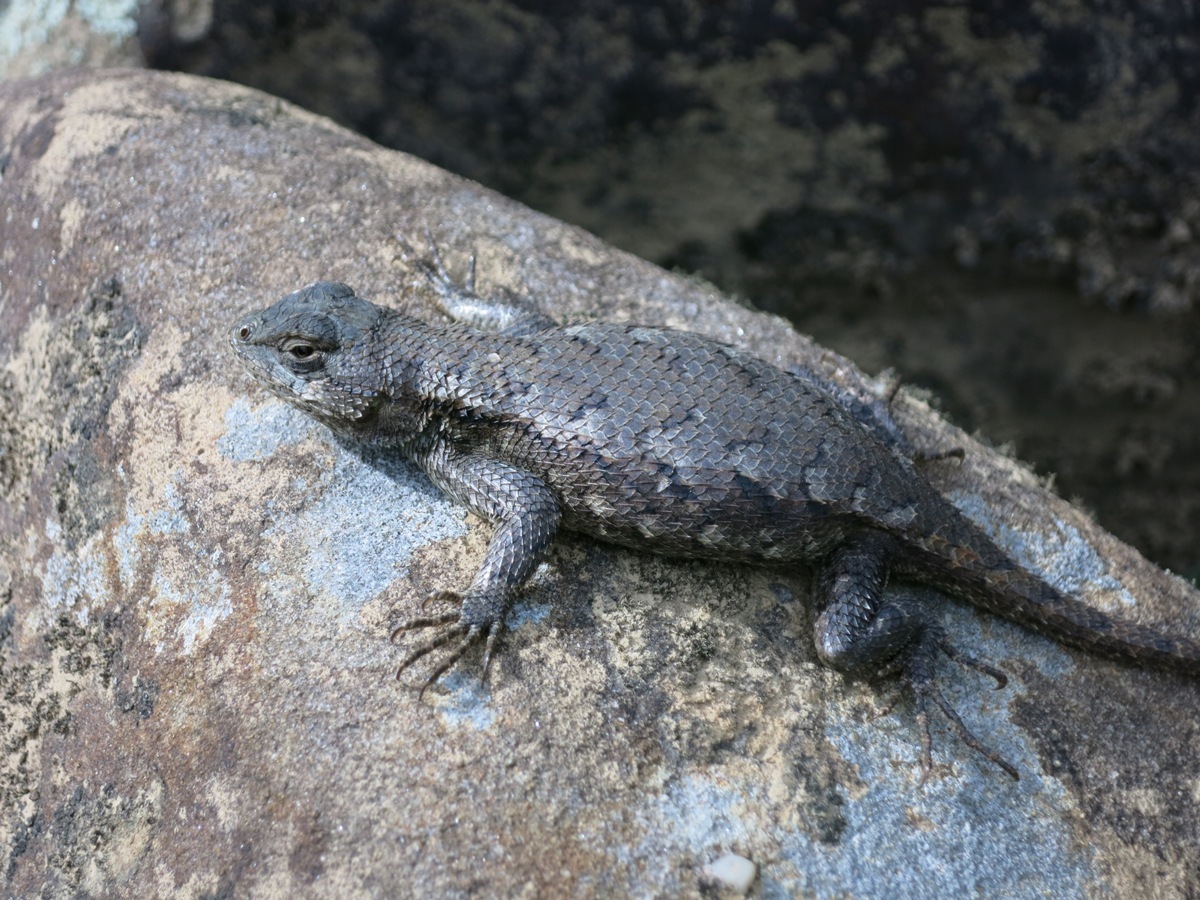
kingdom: Animalia
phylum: Chordata
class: Squamata
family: Phrynosomatidae
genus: Sceloporus
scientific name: Sceloporus undulatus
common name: Eastern fence lizard
